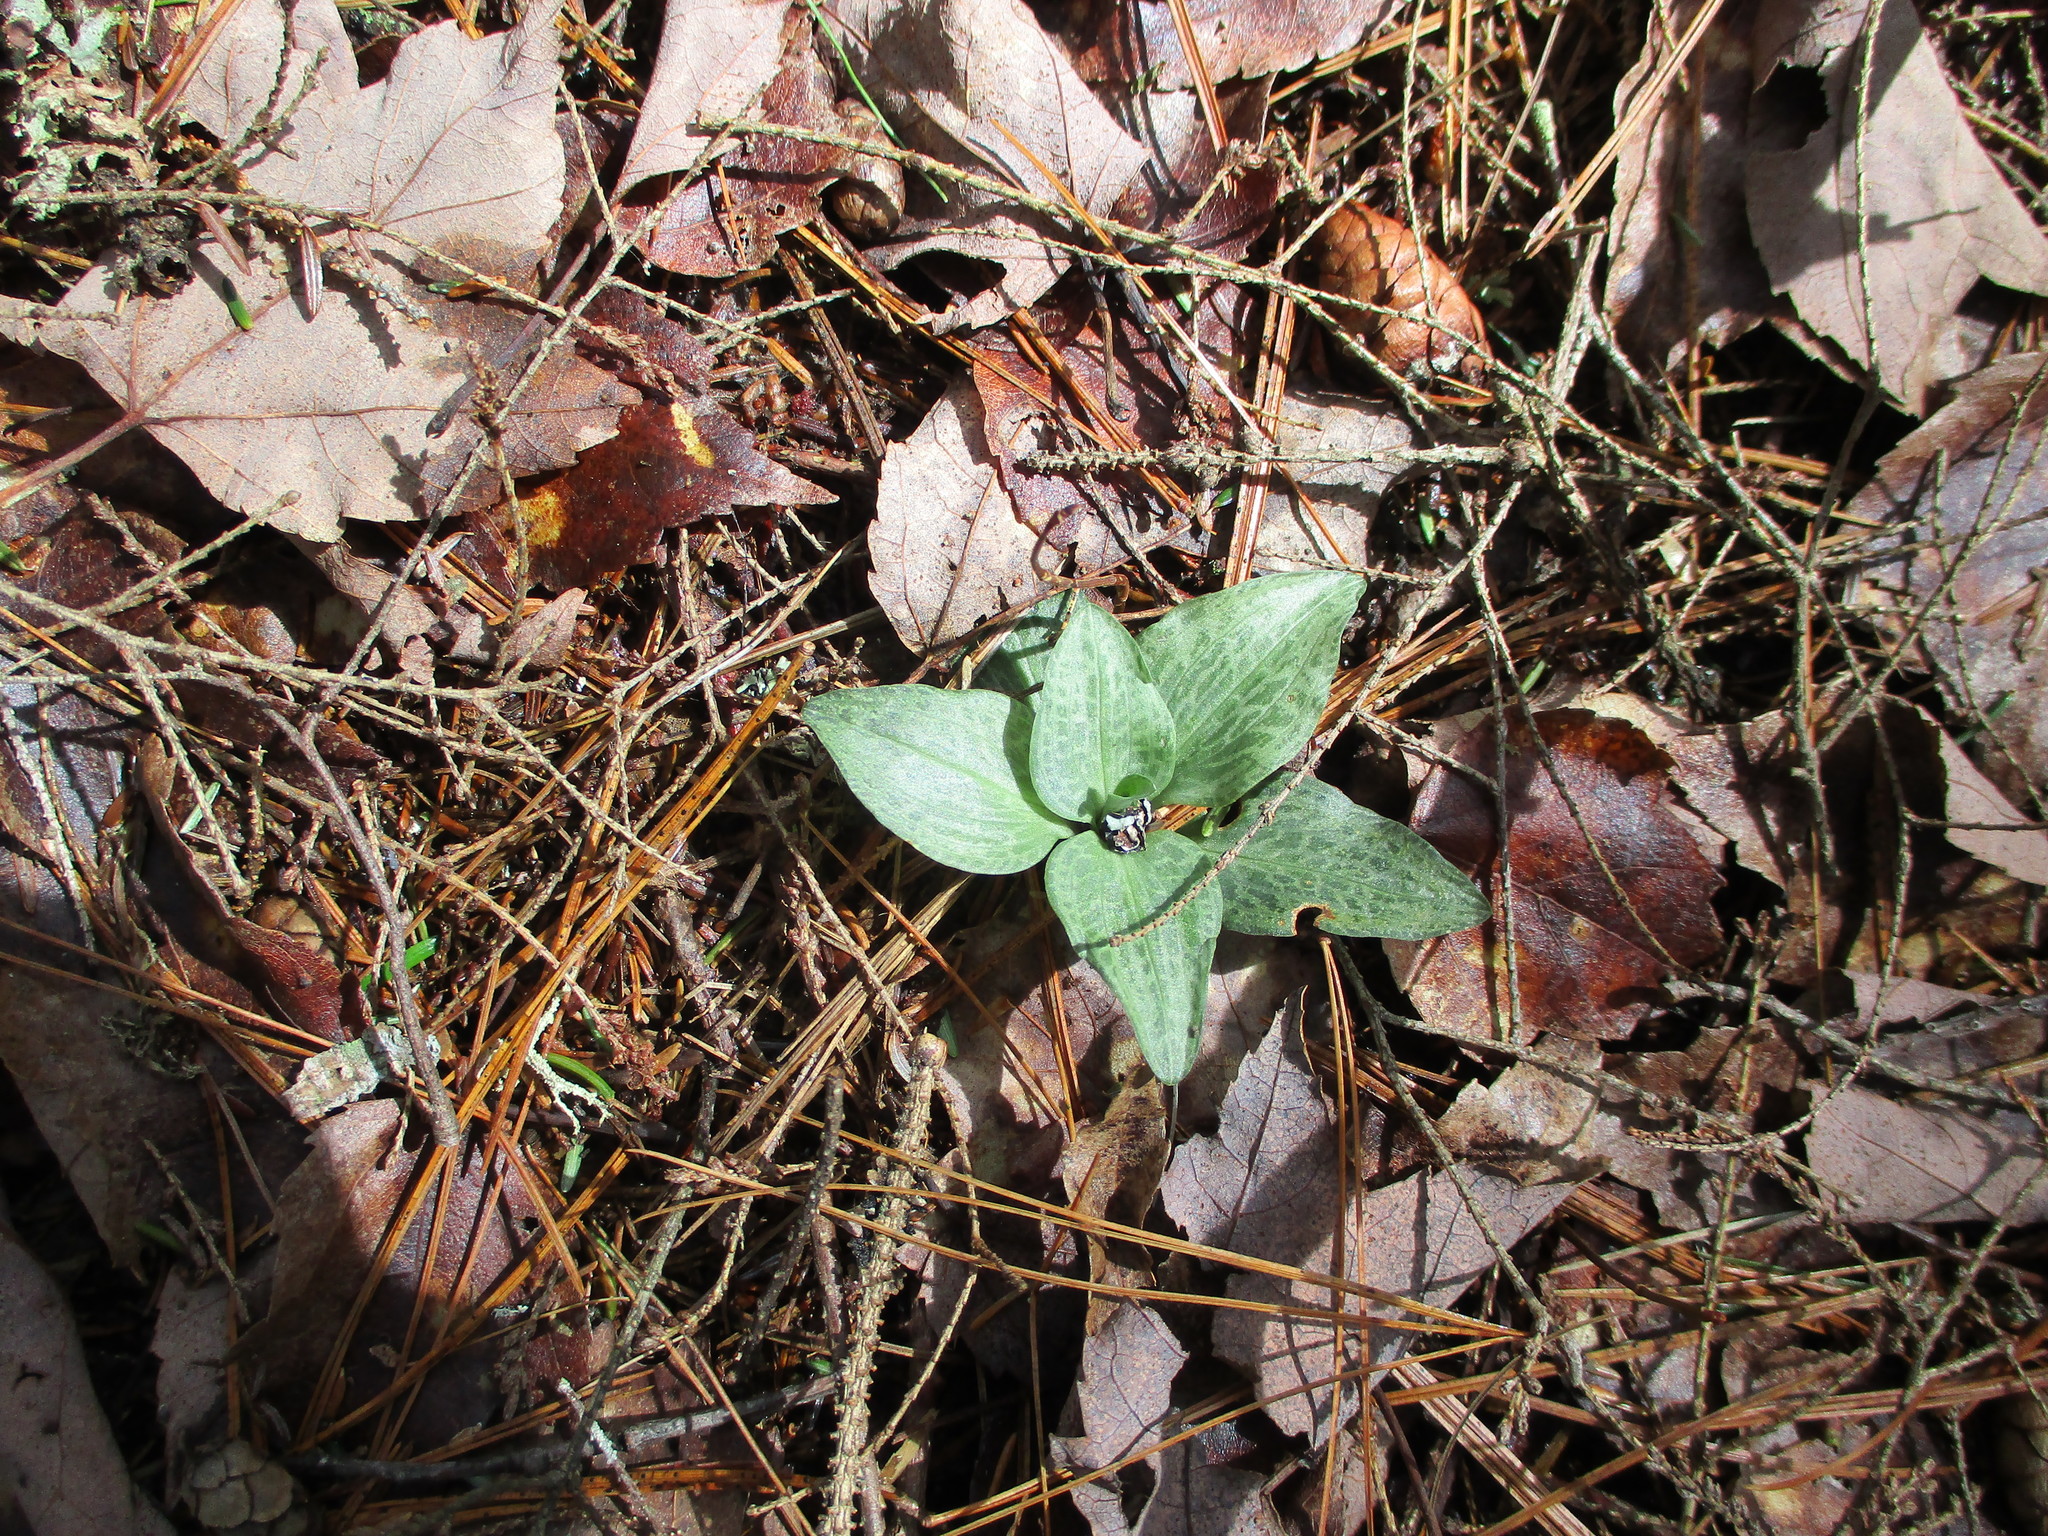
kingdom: Plantae
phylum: Tracheophyta
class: Liliopsida
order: Asparagales
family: Orchidaceae
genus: Goodyera
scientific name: Goodyera tesselata
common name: Checkered rattlesnake-plantain
